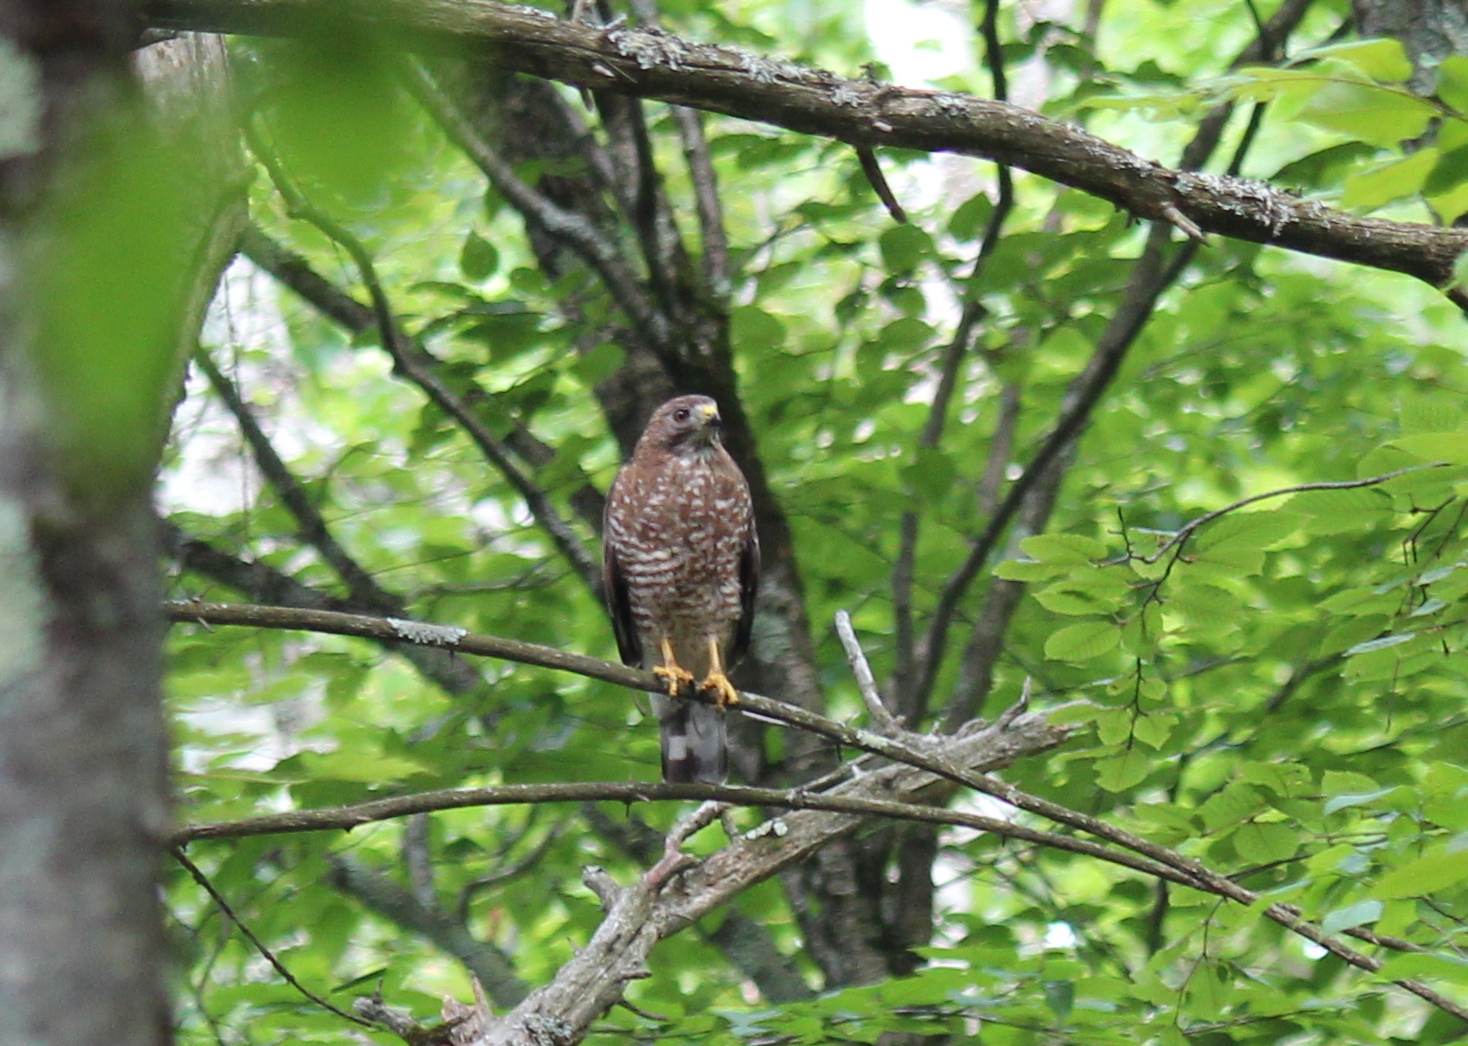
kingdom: Animalia
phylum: Chordata
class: Aves
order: Accipitriformes
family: Accipitridae
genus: Buteo
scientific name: Buteo platypterus
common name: Broad-winged hawk
